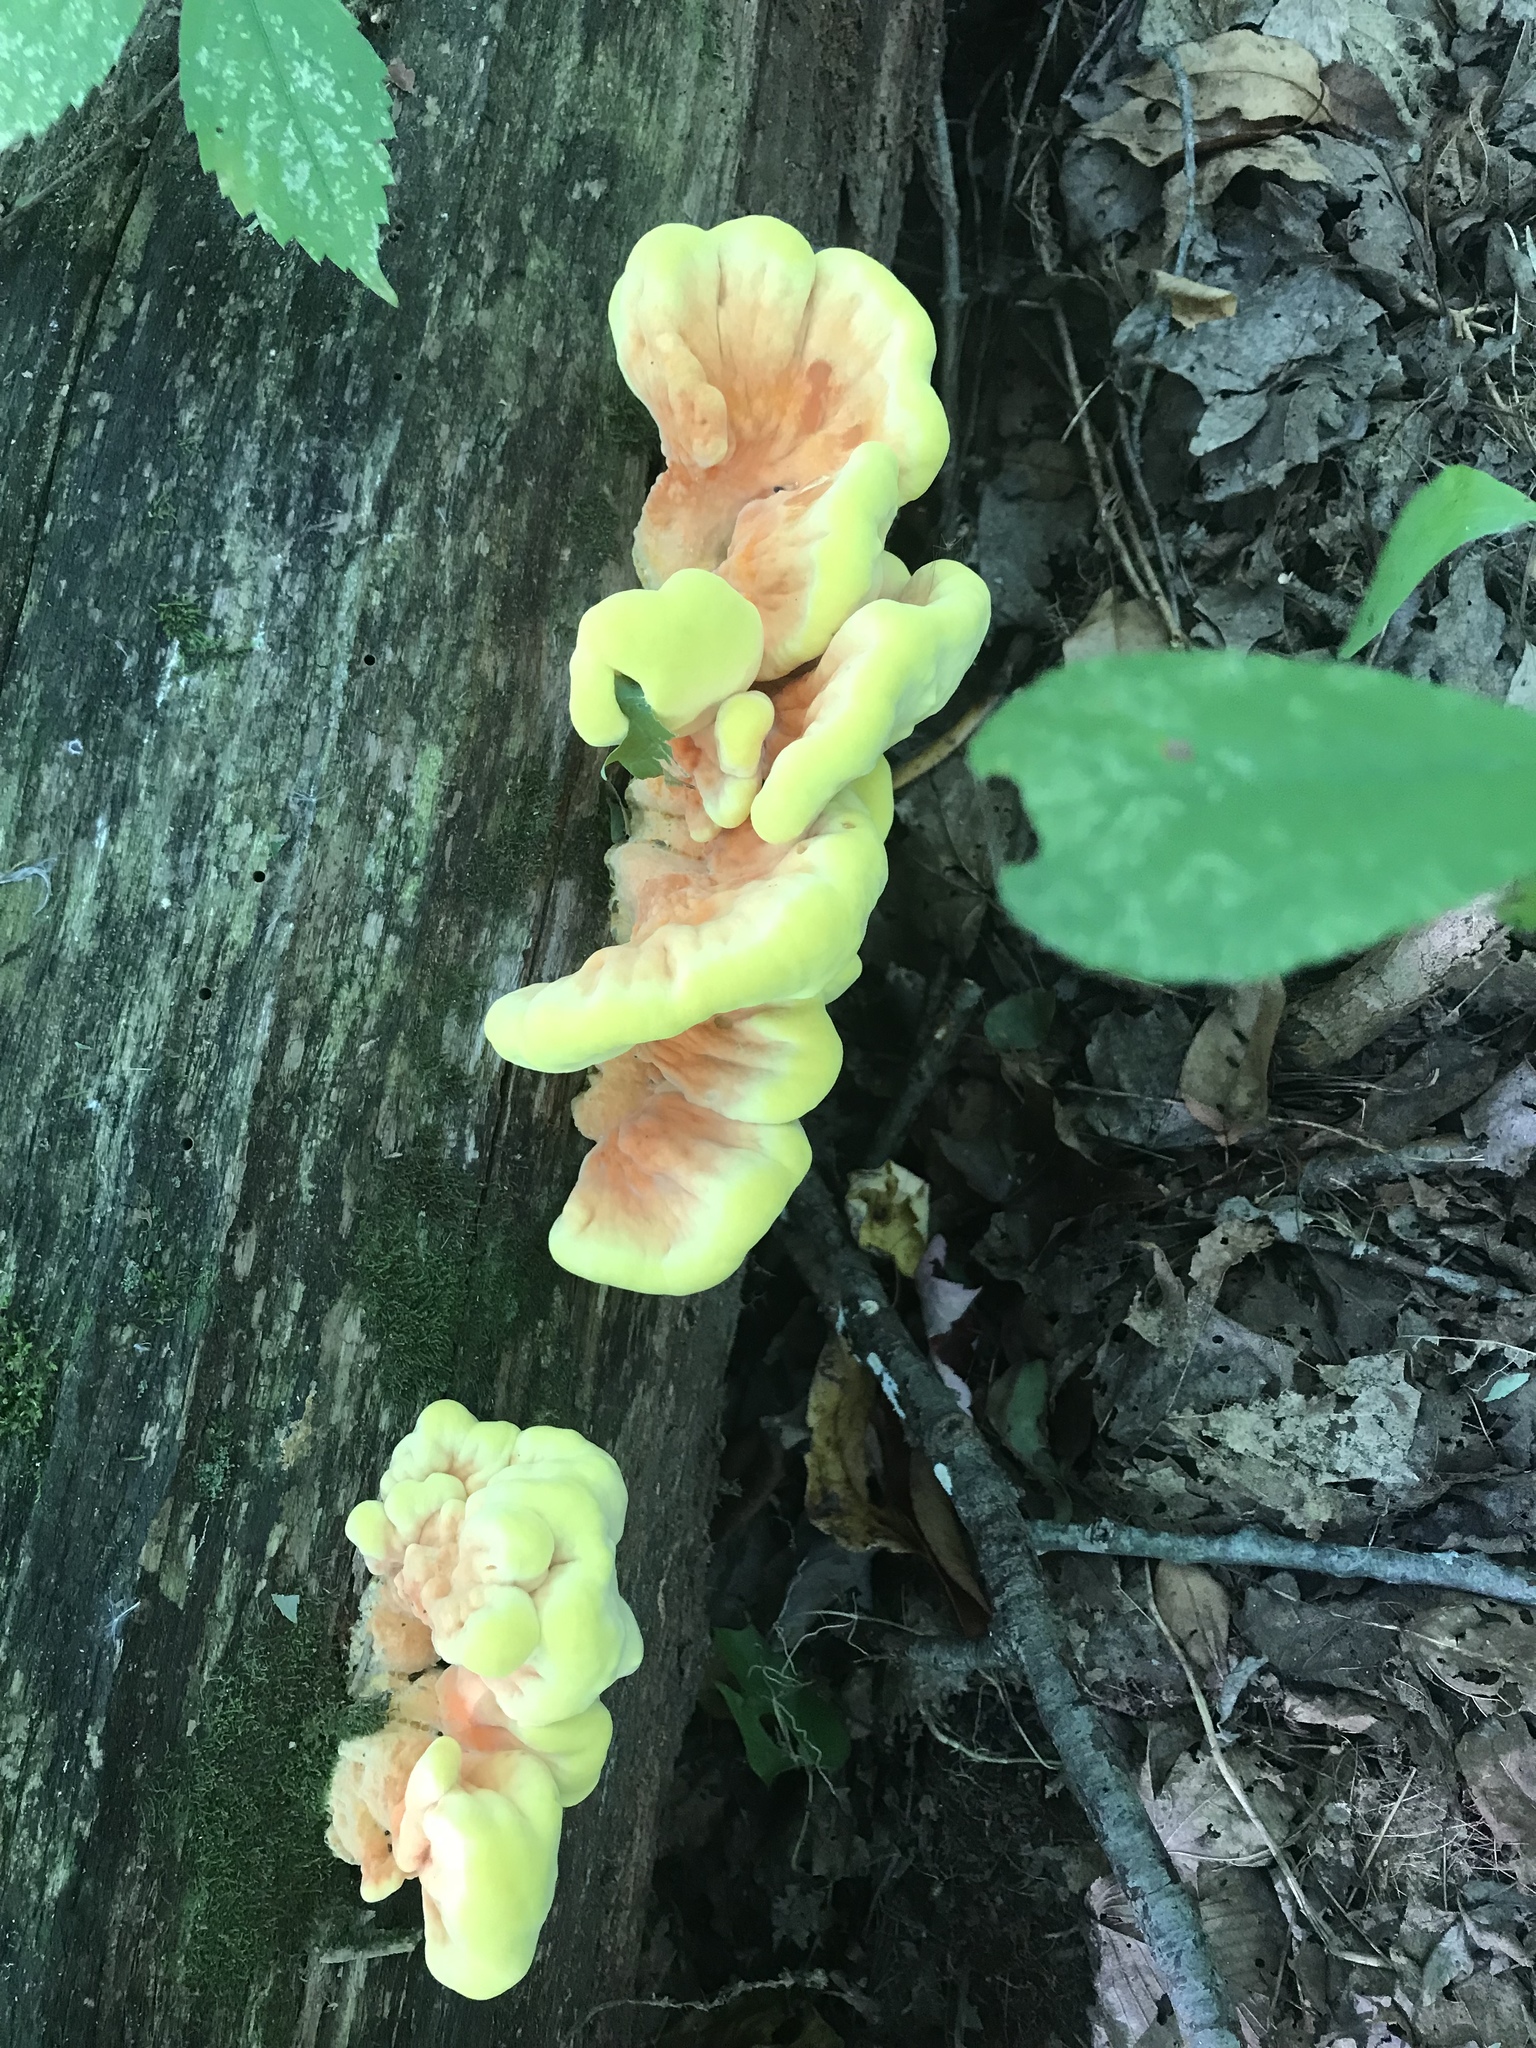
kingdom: Fungi
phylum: Basidiomycota
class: Agaricomycetes
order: Polyporales
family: Laetiporaceae
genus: Laetiporus
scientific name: Laetiporus sulphureus
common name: Chicken of the woods
